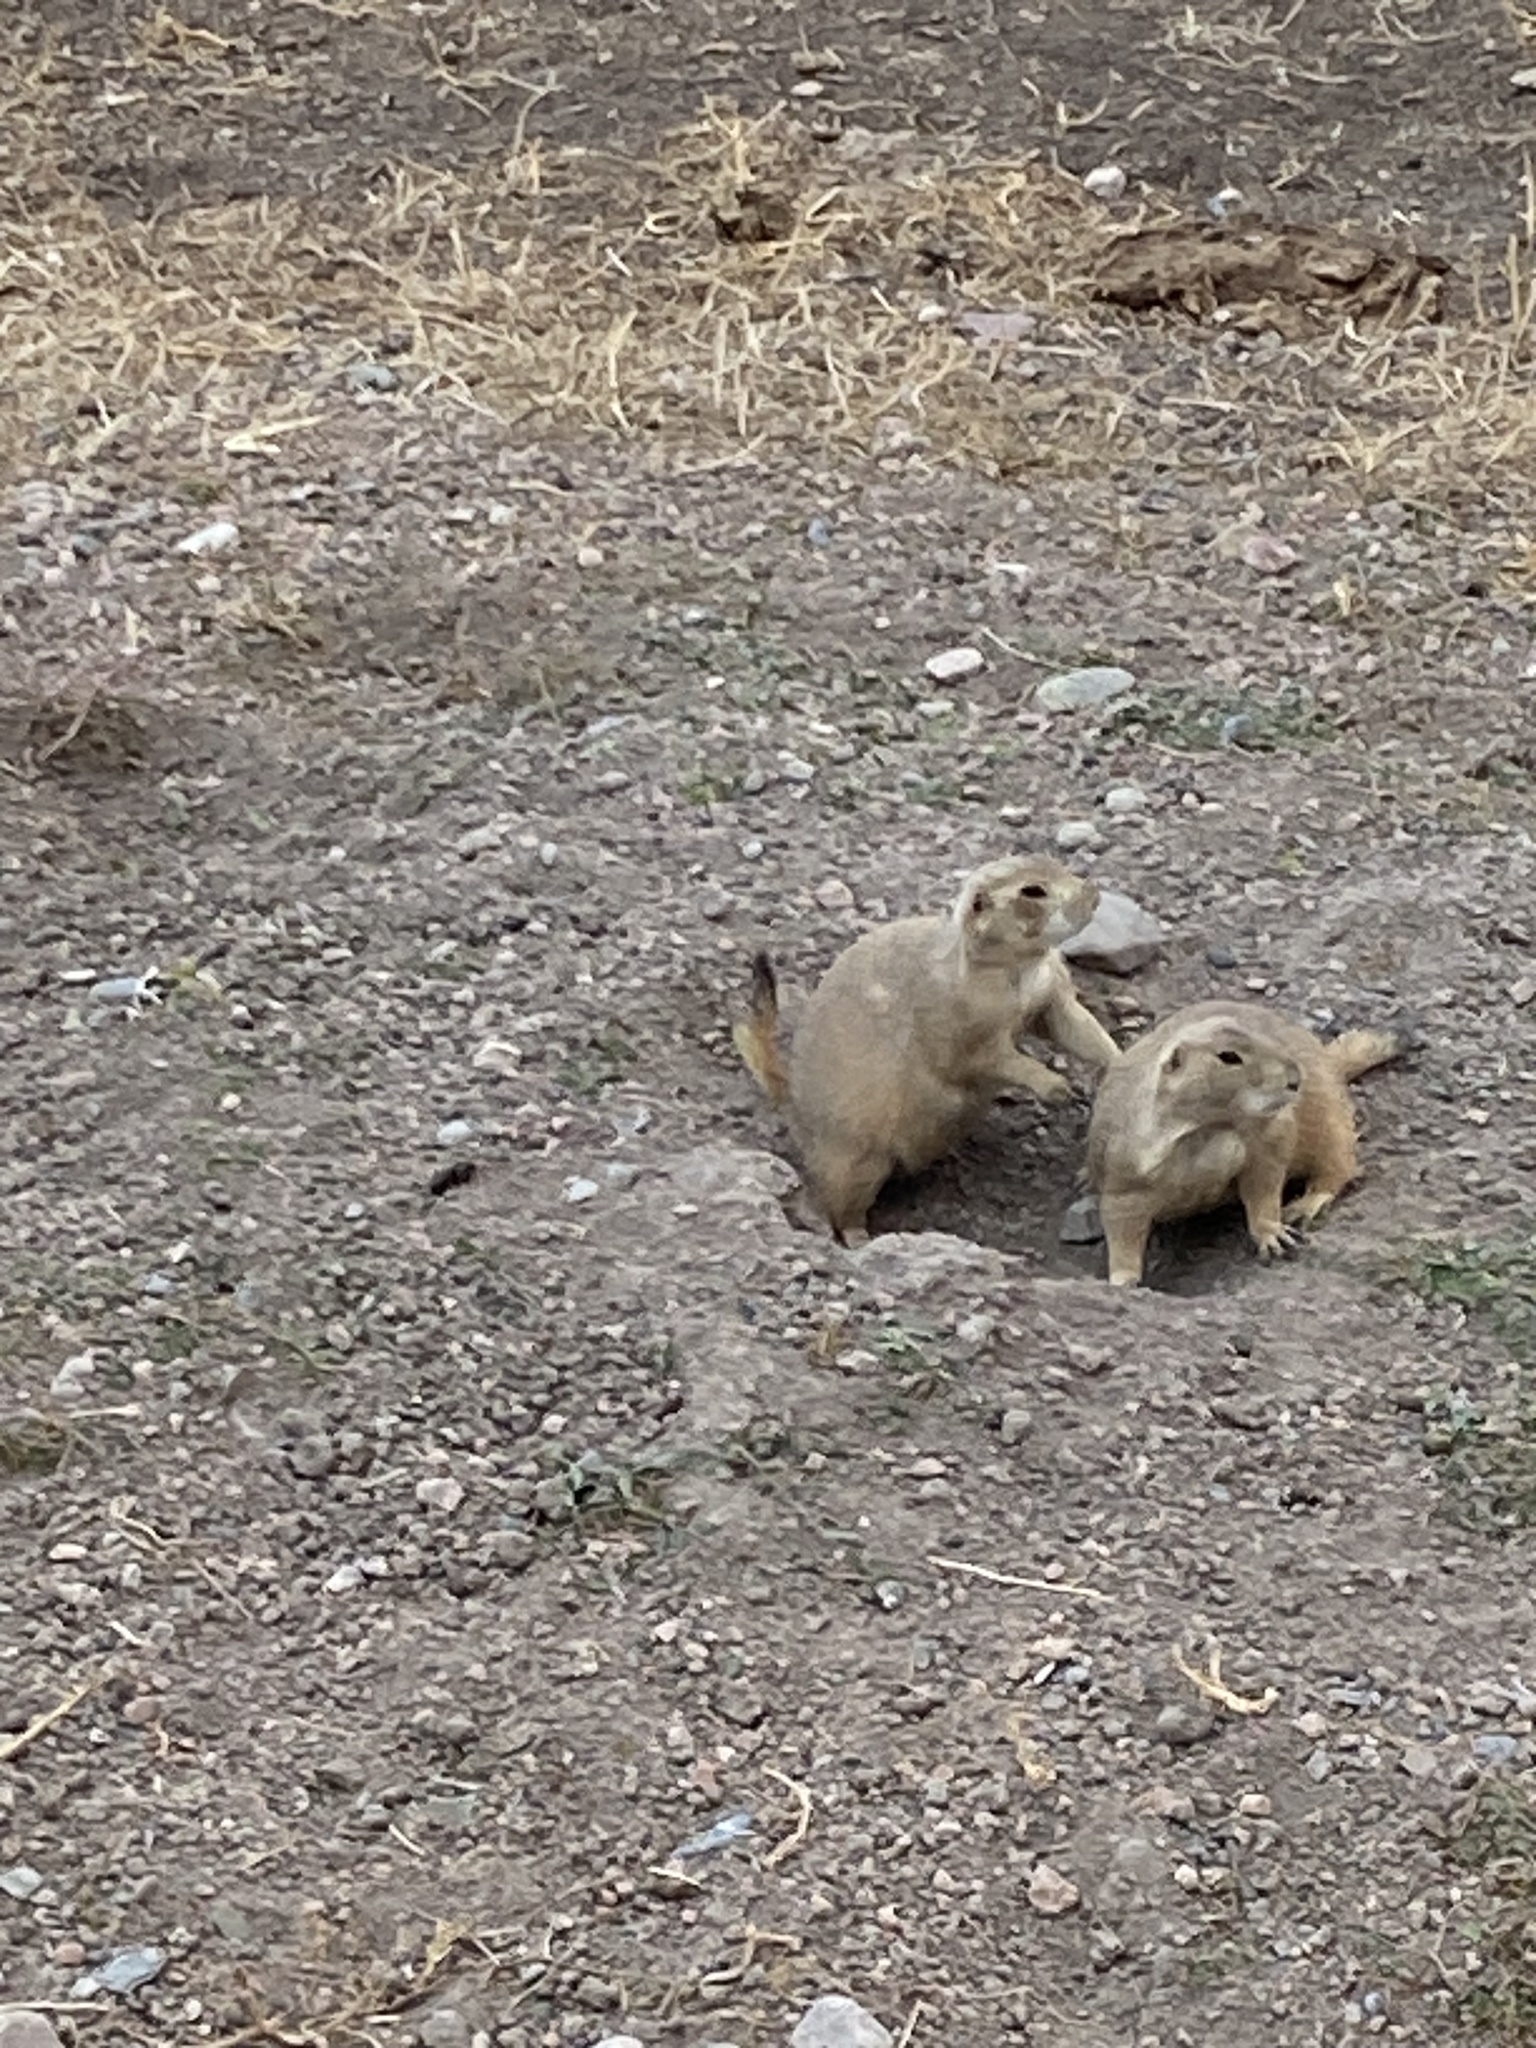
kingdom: Animalia
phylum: Chordata
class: Mammalia
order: Rodentia
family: Sciuridae
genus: Cynomys
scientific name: Cynomys ludovicianus
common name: Black-tailed prairie dog
